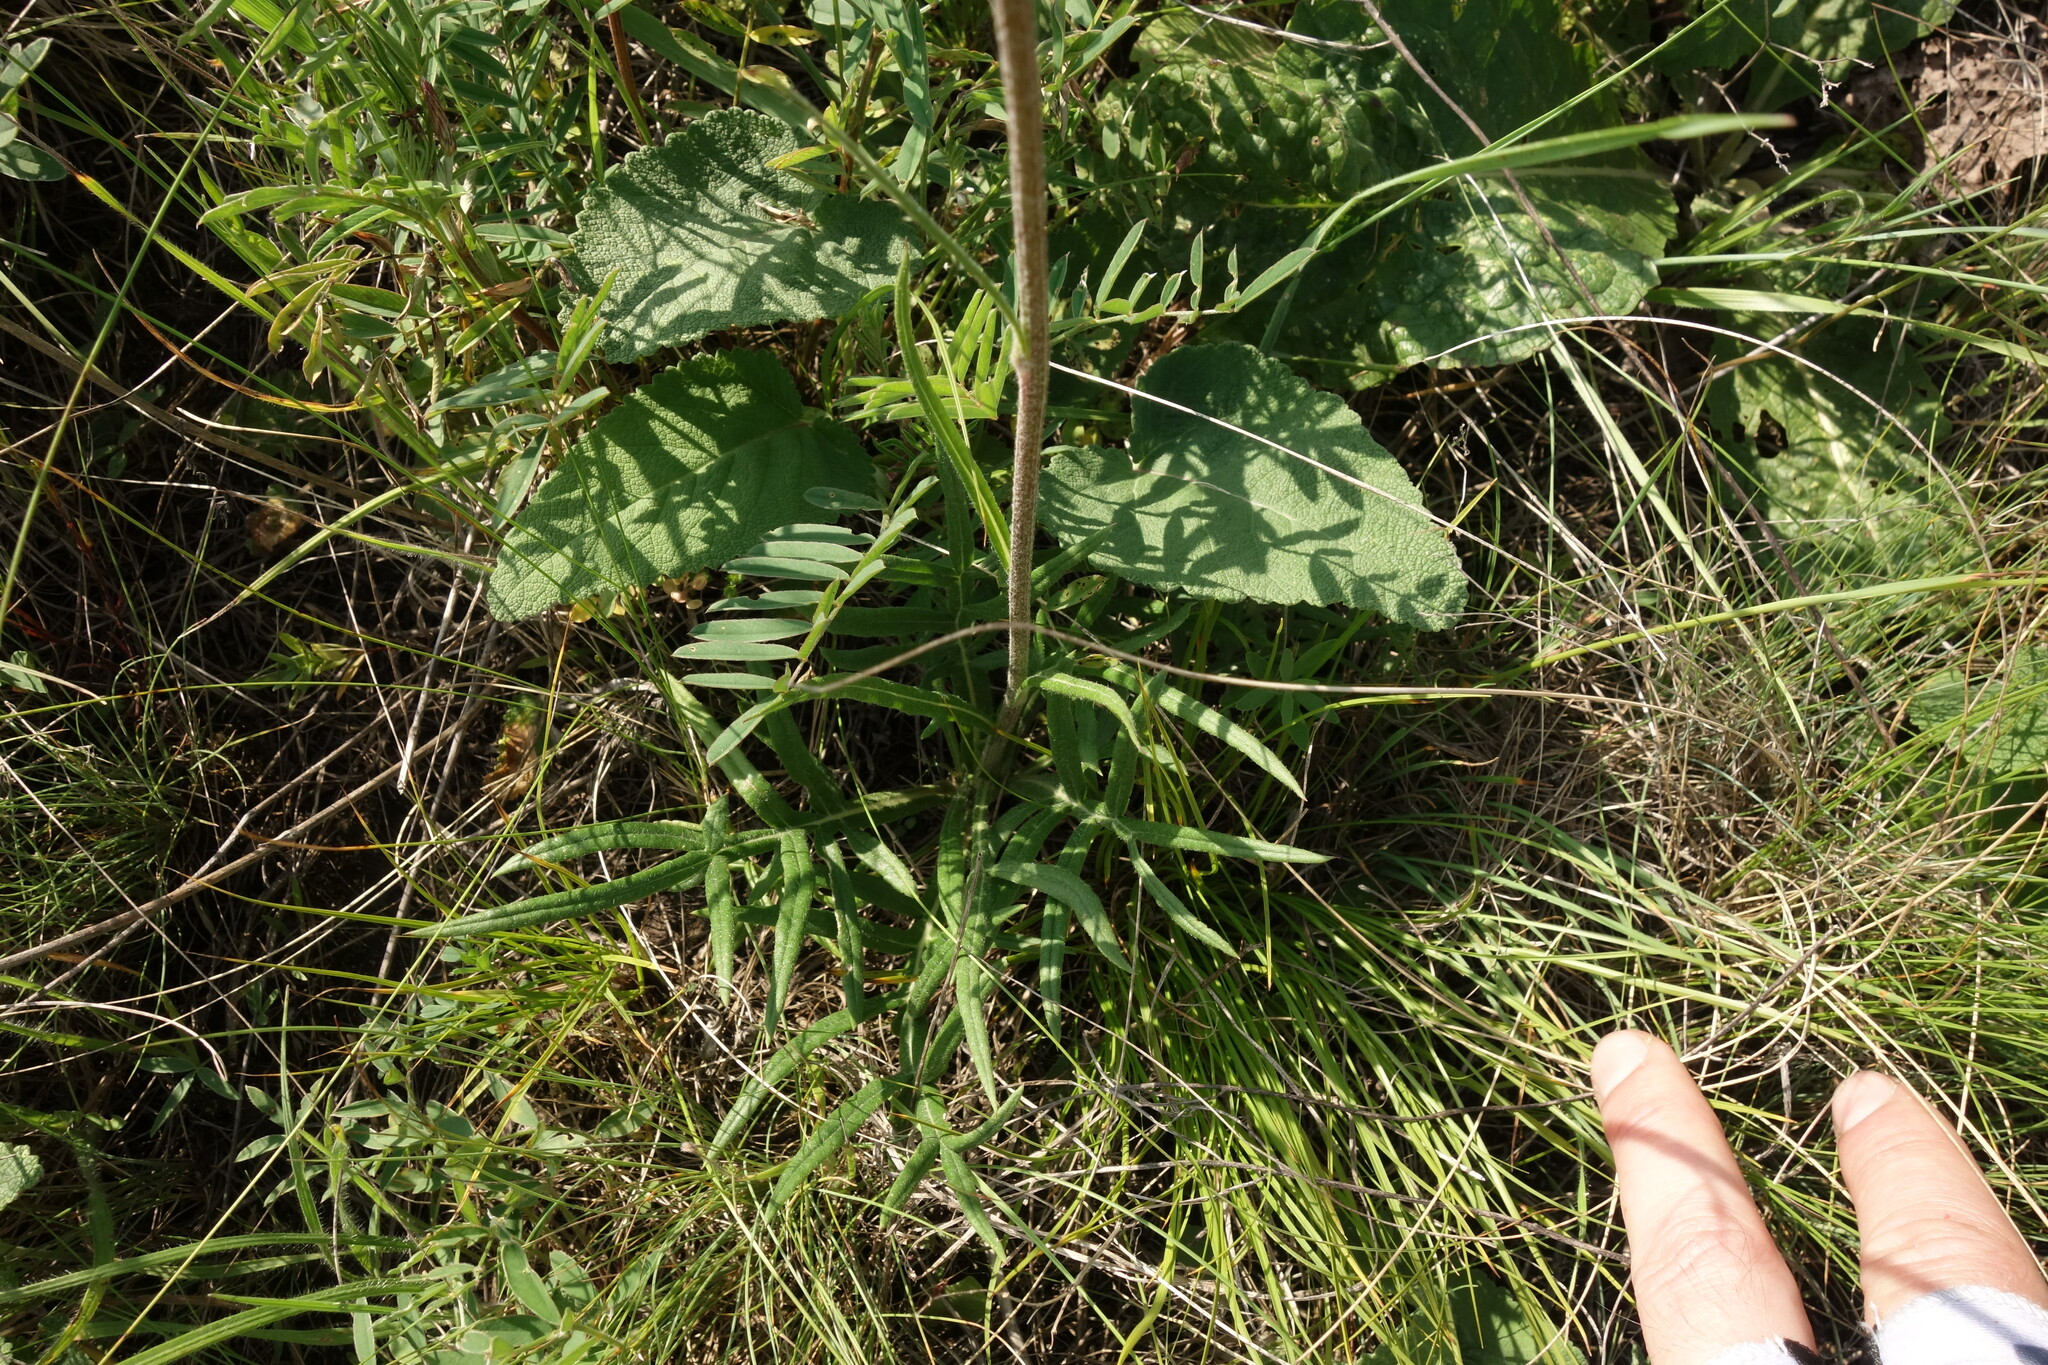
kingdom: Plantae
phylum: Tracheophyta
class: Magnoliopsida
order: Asterales
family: Asteraceae
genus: Jurinea
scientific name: Jurinea arachnoidea
